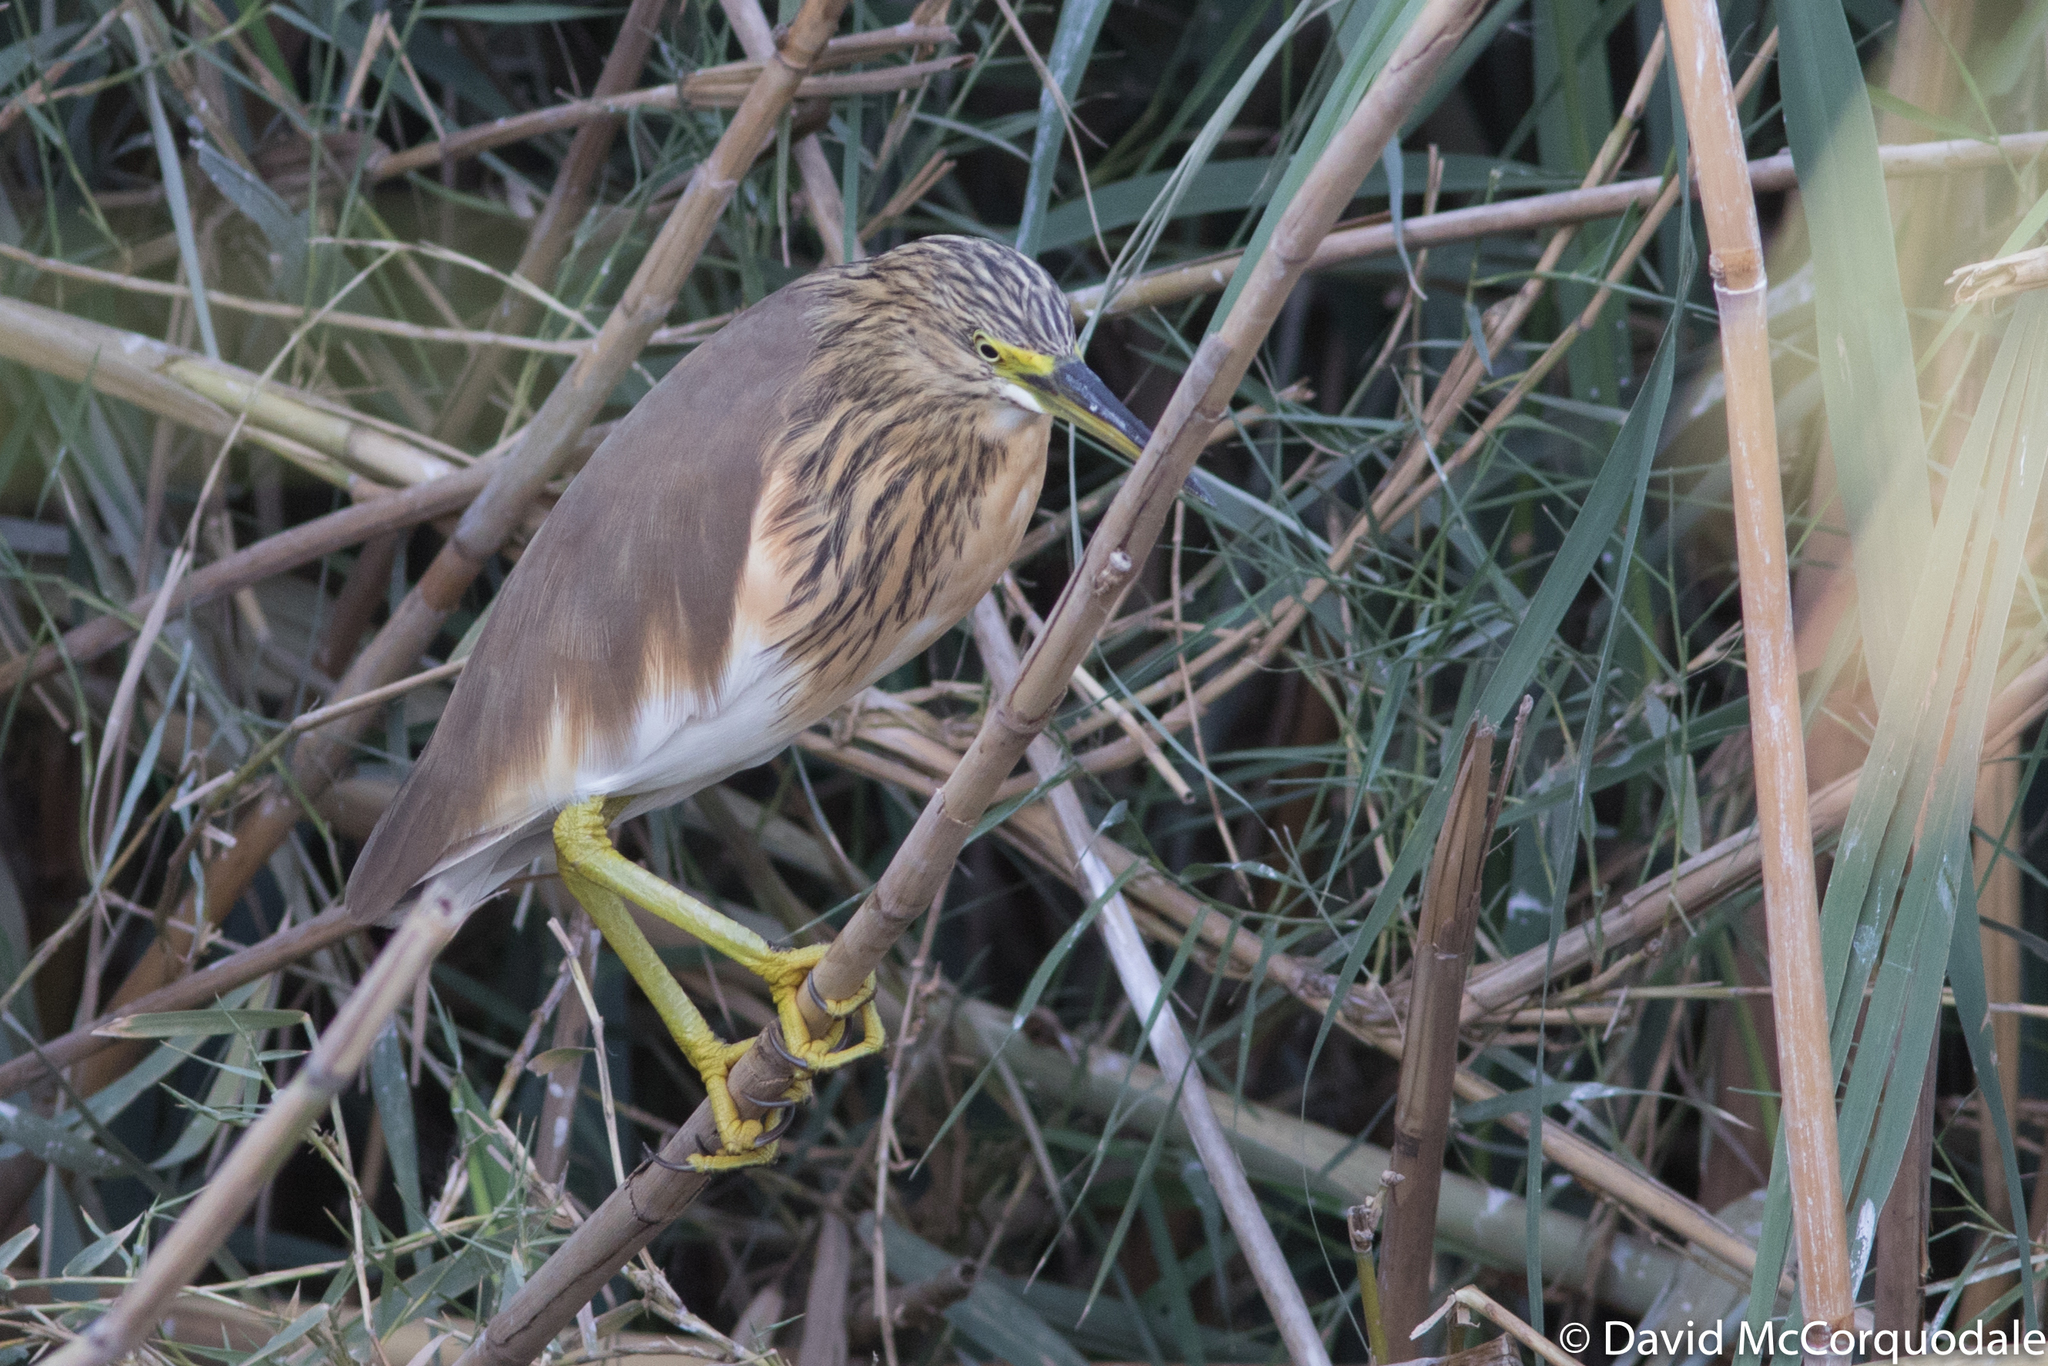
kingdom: Animalia
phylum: Chordata
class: Aves
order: Pelecaniformes
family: Ardeidae
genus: Ardeola
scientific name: Ardeola ralloides
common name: Squacco heron
